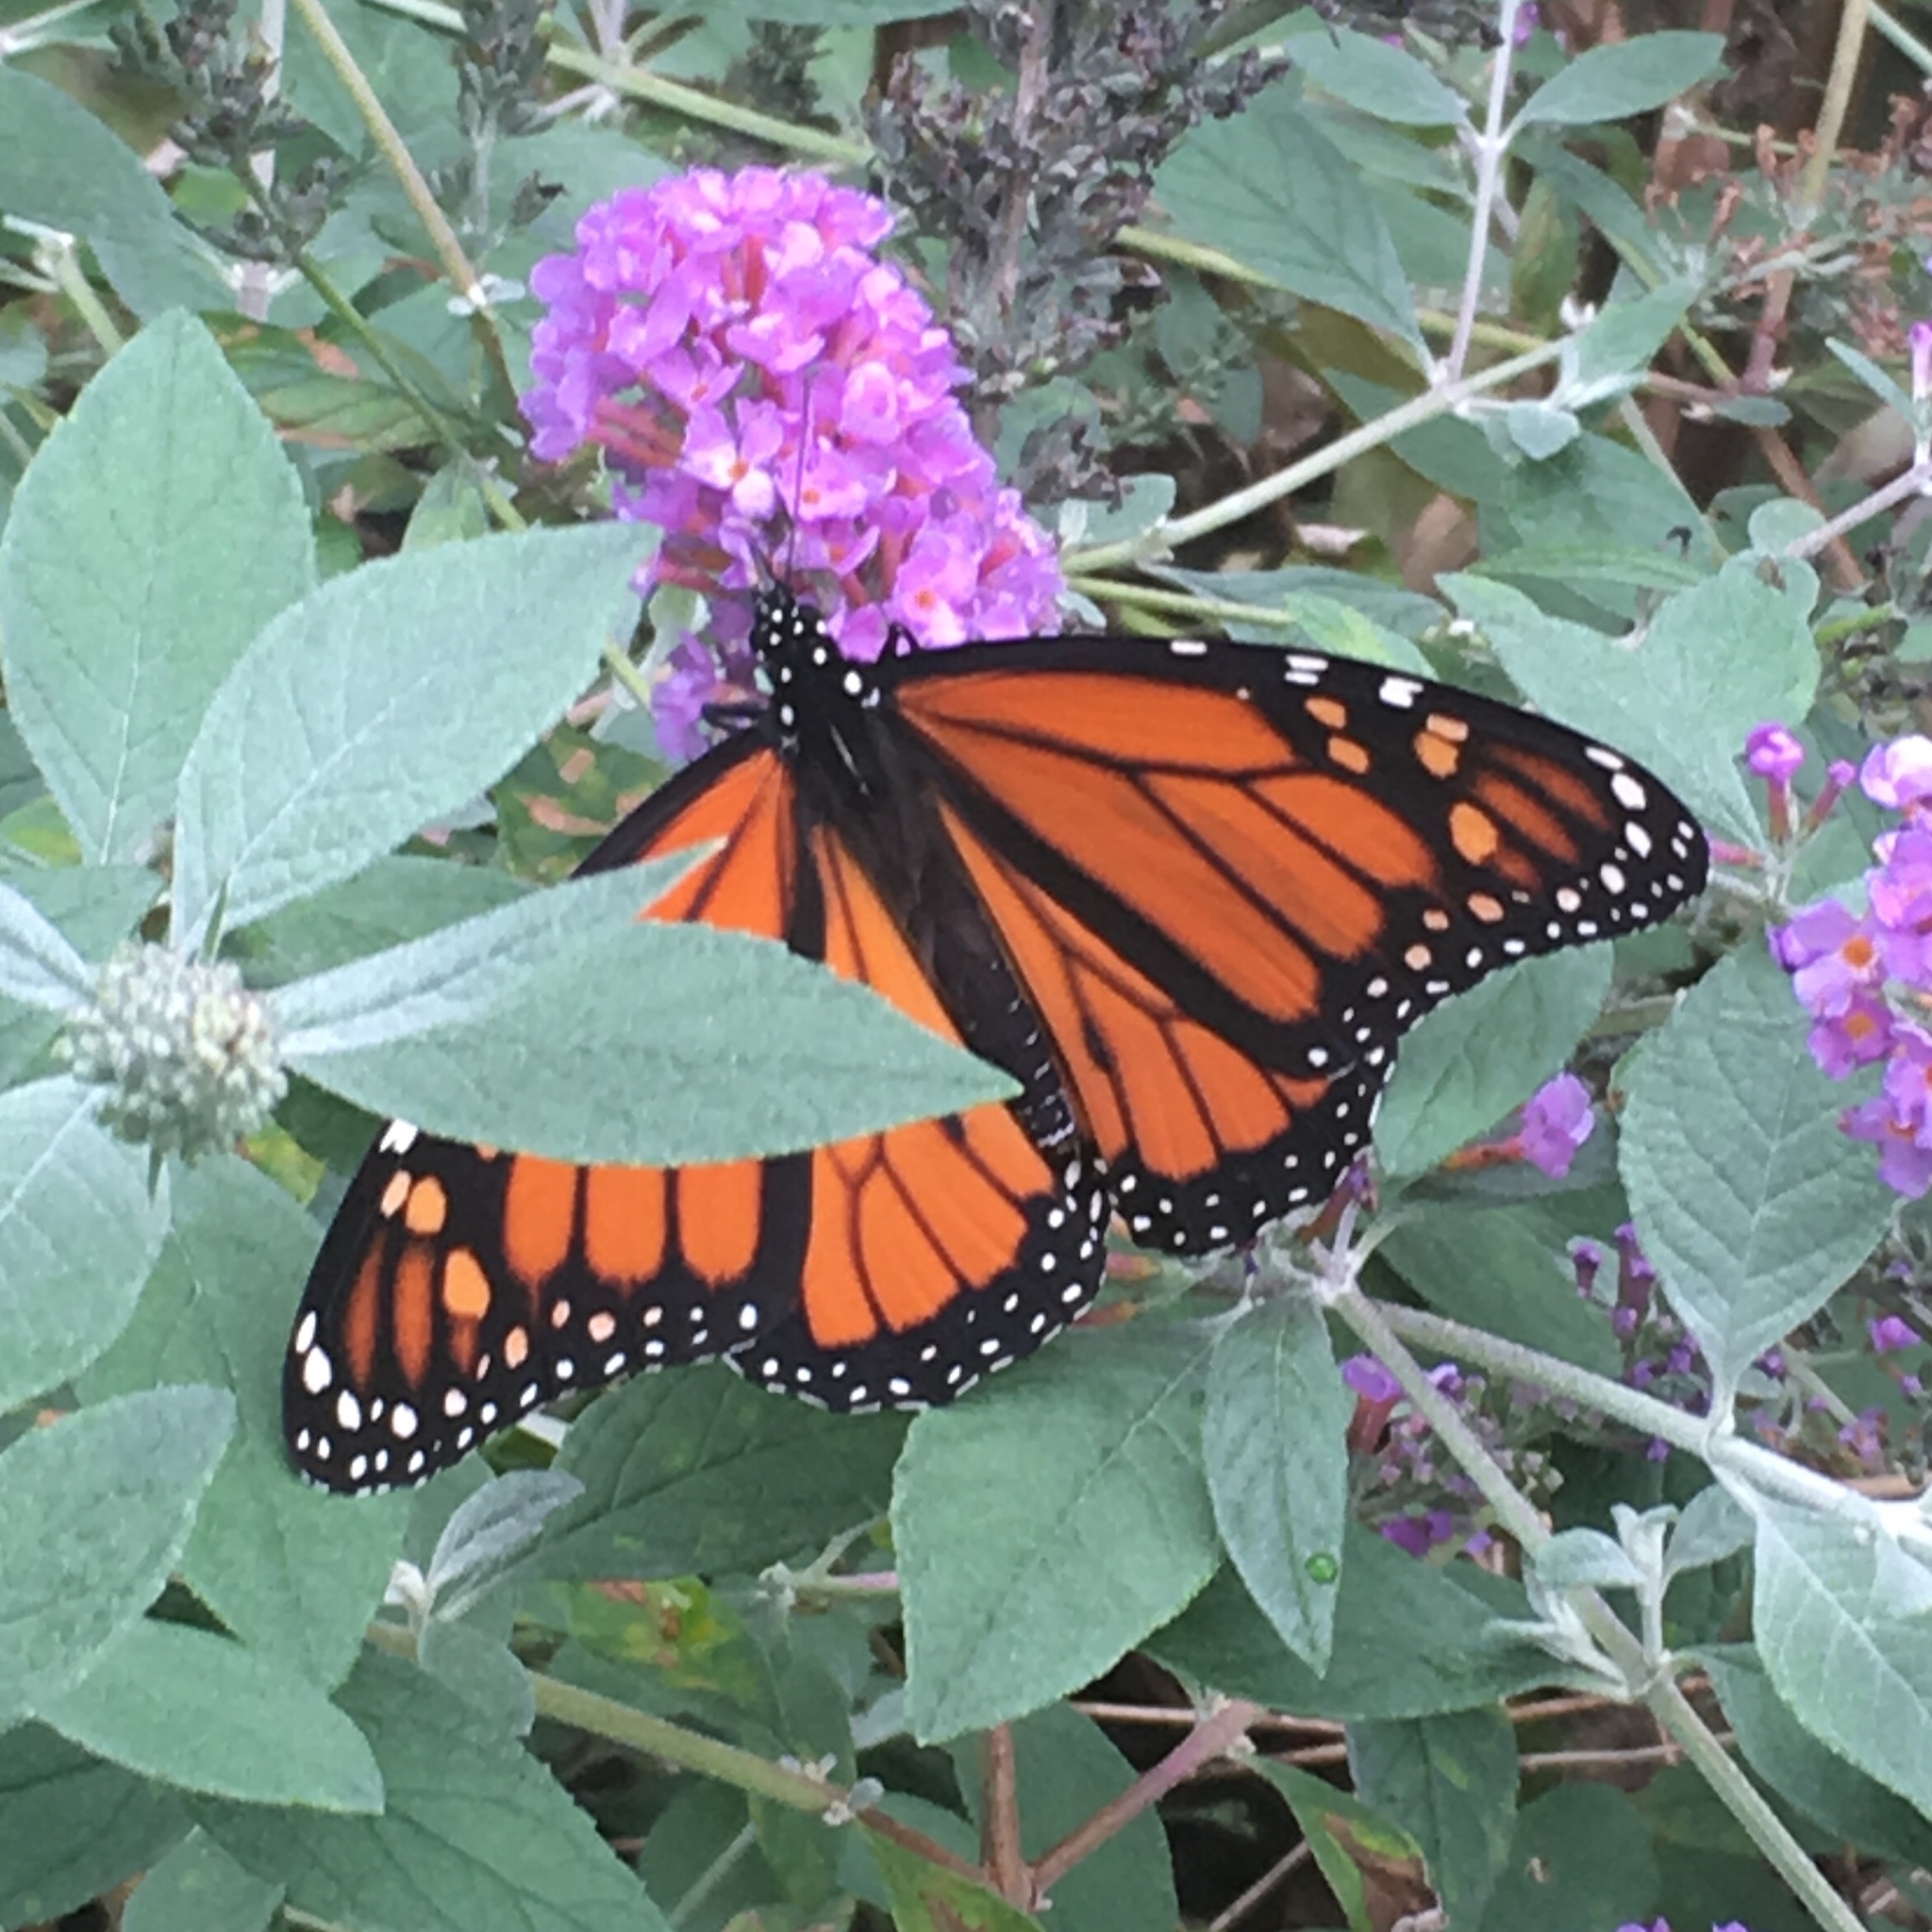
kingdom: Animalia
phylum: Arthropoda
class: Insecta
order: Lepidoptera
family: Nymphalidae
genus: Danaus
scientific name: Danaus plexippus
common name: Monarch
